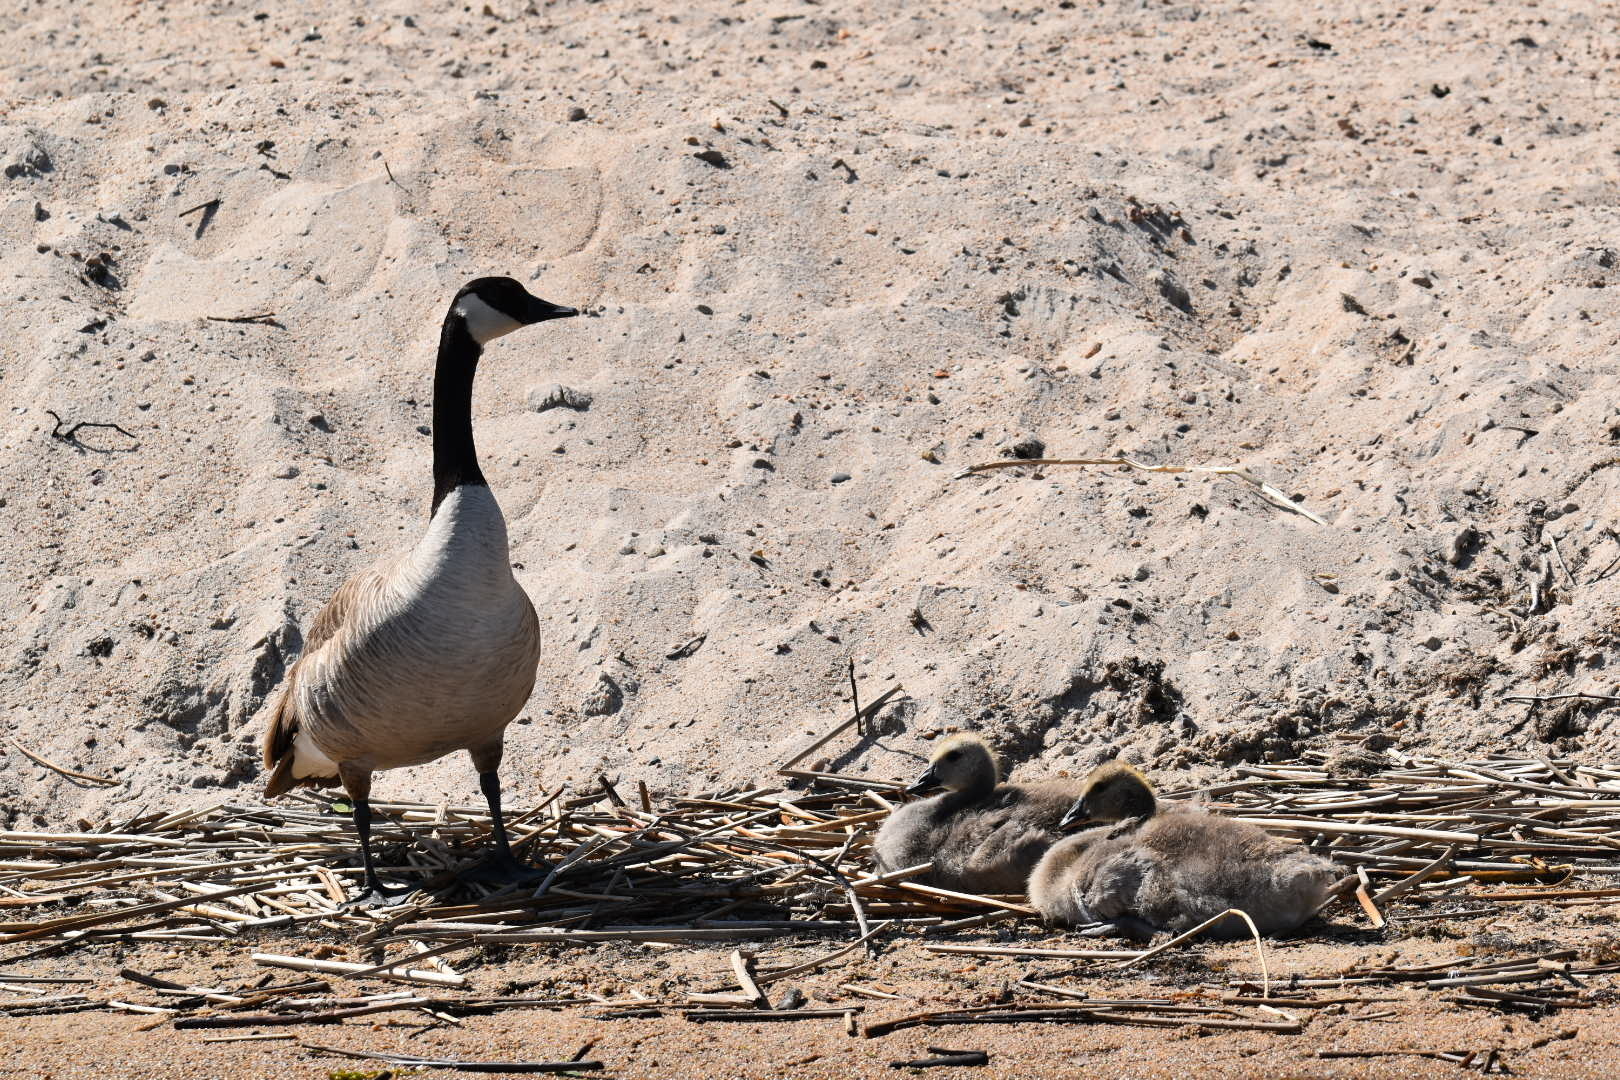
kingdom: Animalia
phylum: Chordata
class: Aves
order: Anseriformes
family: Anatidae
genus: Branta
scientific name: Branta canadensis
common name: Canada goose
